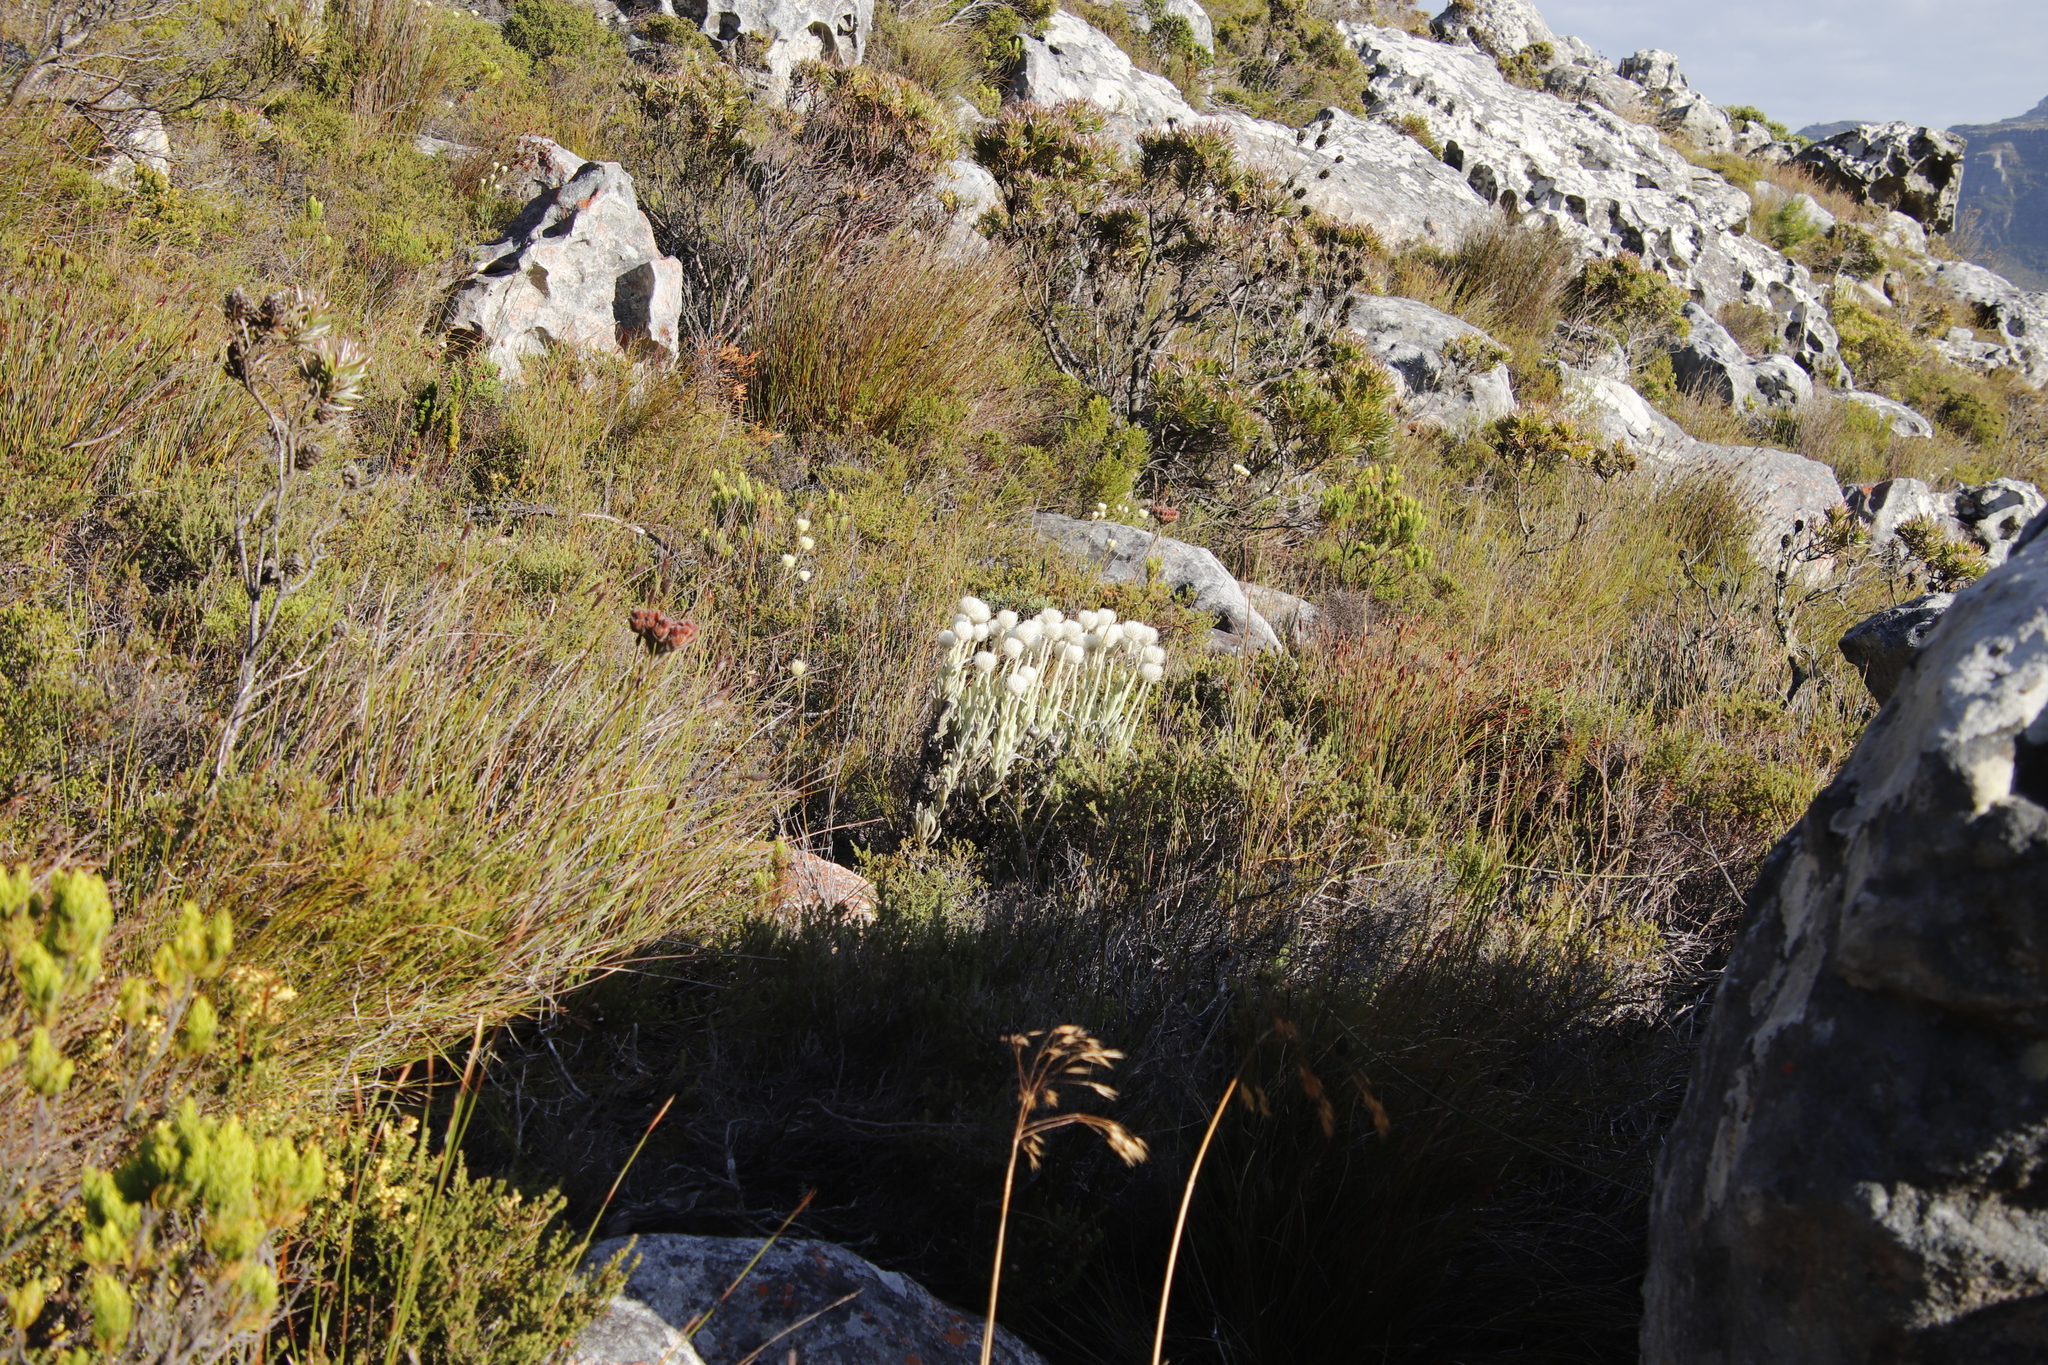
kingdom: Plantae
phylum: Tracheophyta
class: Magnoliopsida
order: Asterales
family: Asteraceae
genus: Syncarpha
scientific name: Syncarpha vestita
